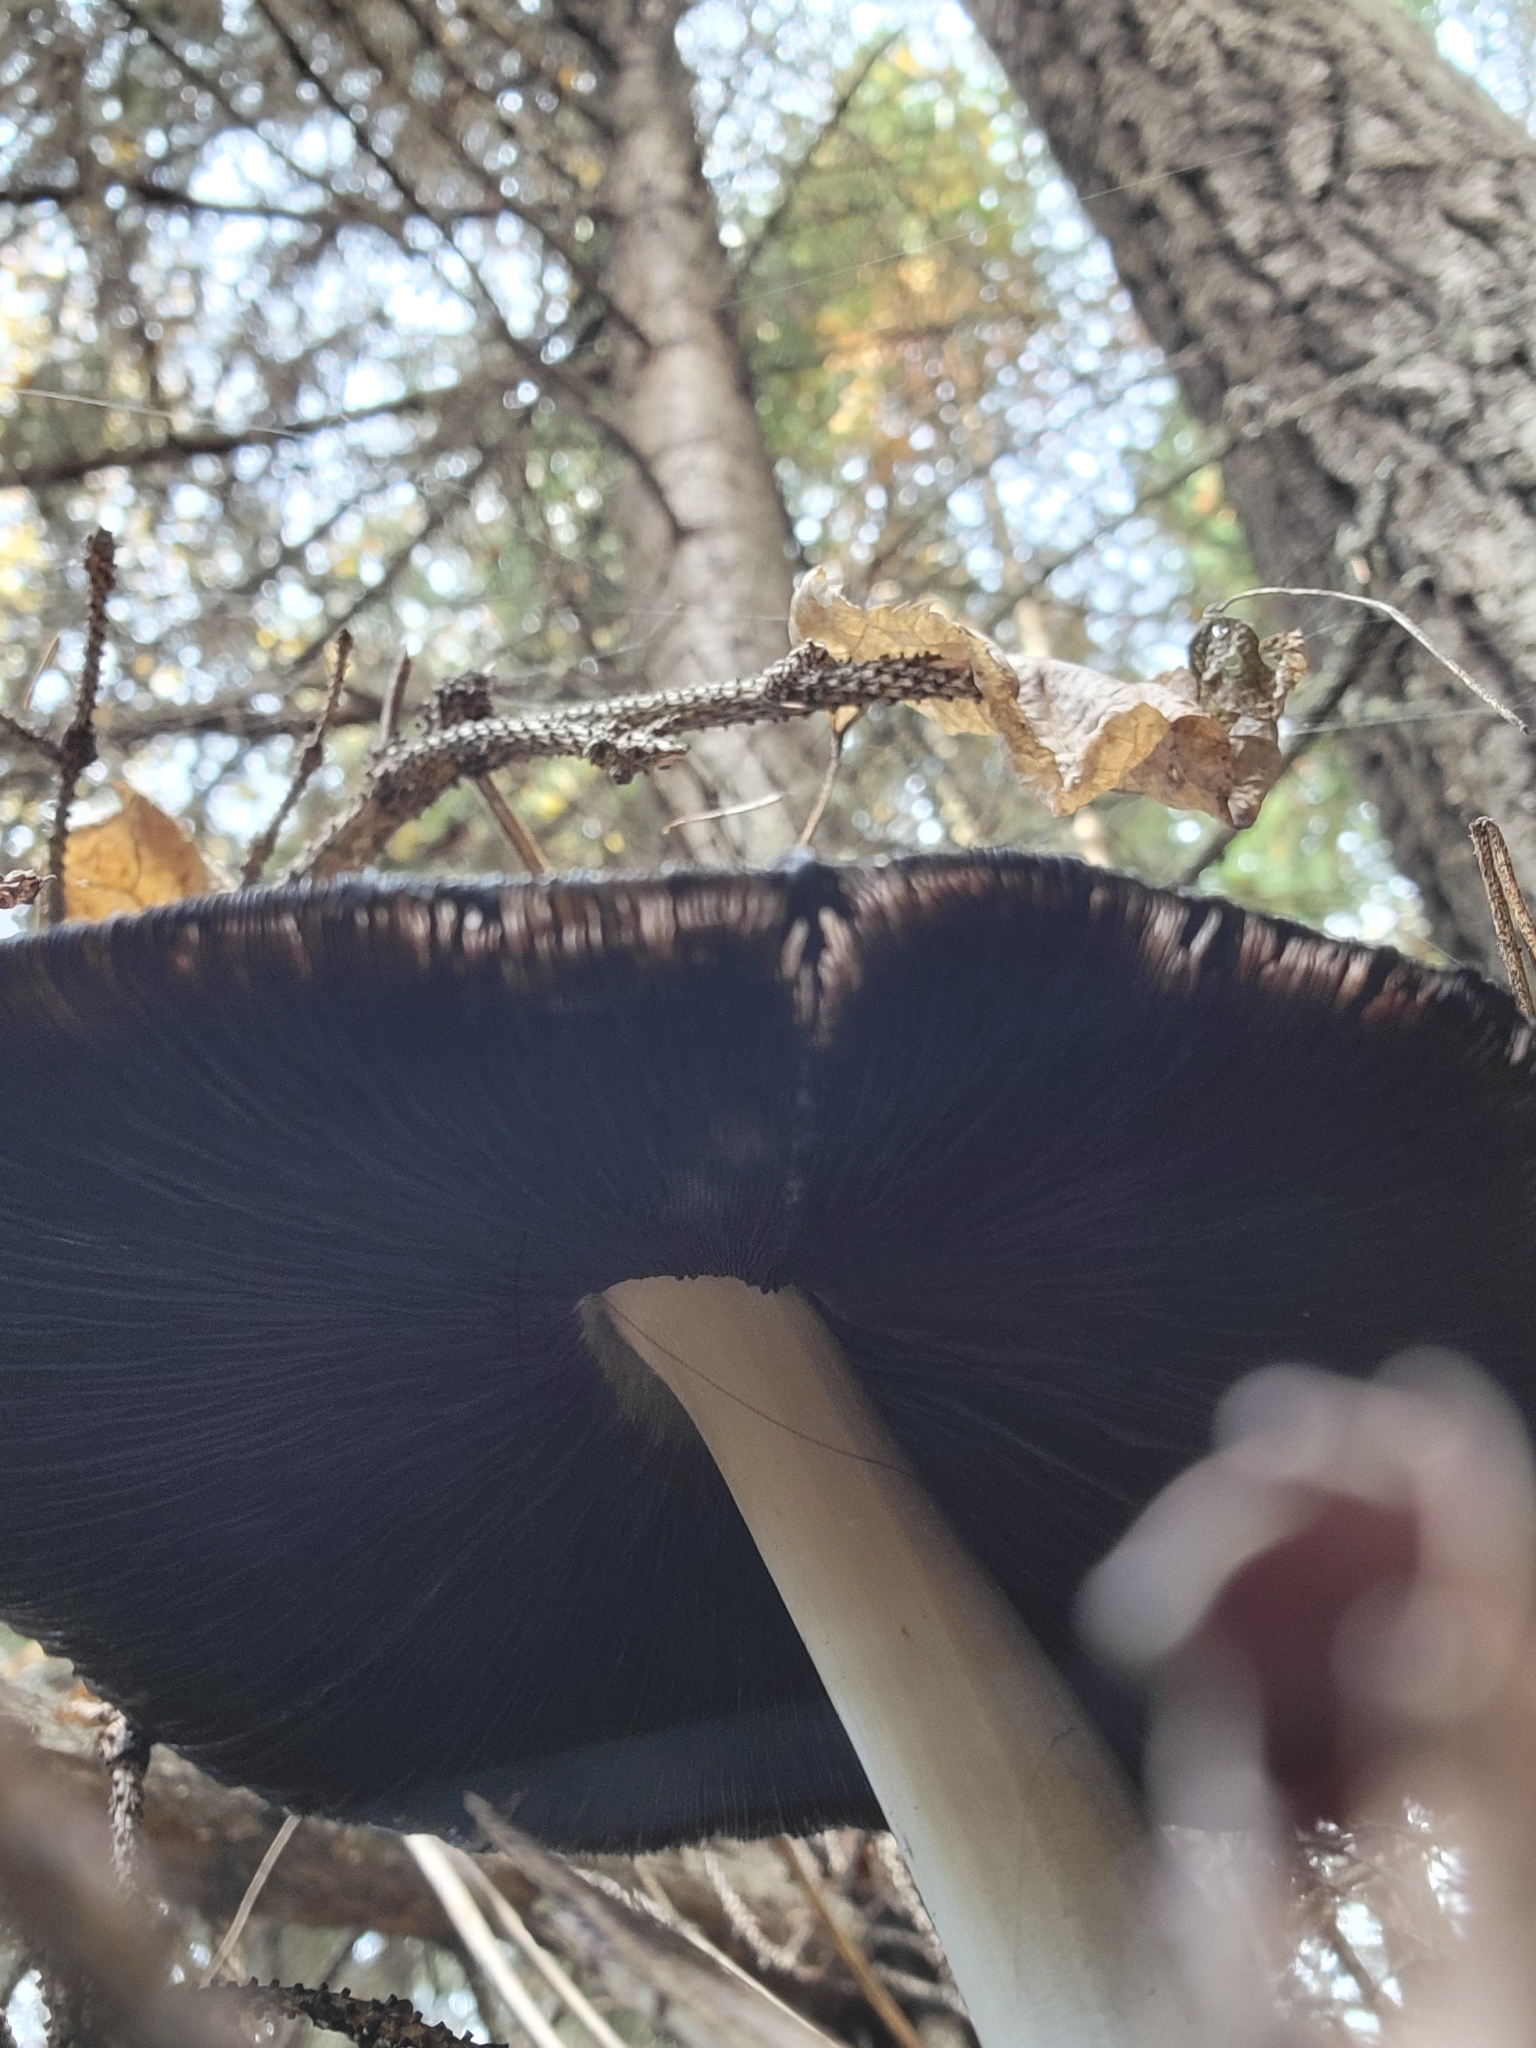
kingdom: Fungi
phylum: Basidiomycota
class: Agaricomycetes
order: Agaricales
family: Psathyrellaceae
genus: Coprinopsis
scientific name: Coprinopsis atramentaria
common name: Common ink-cap
